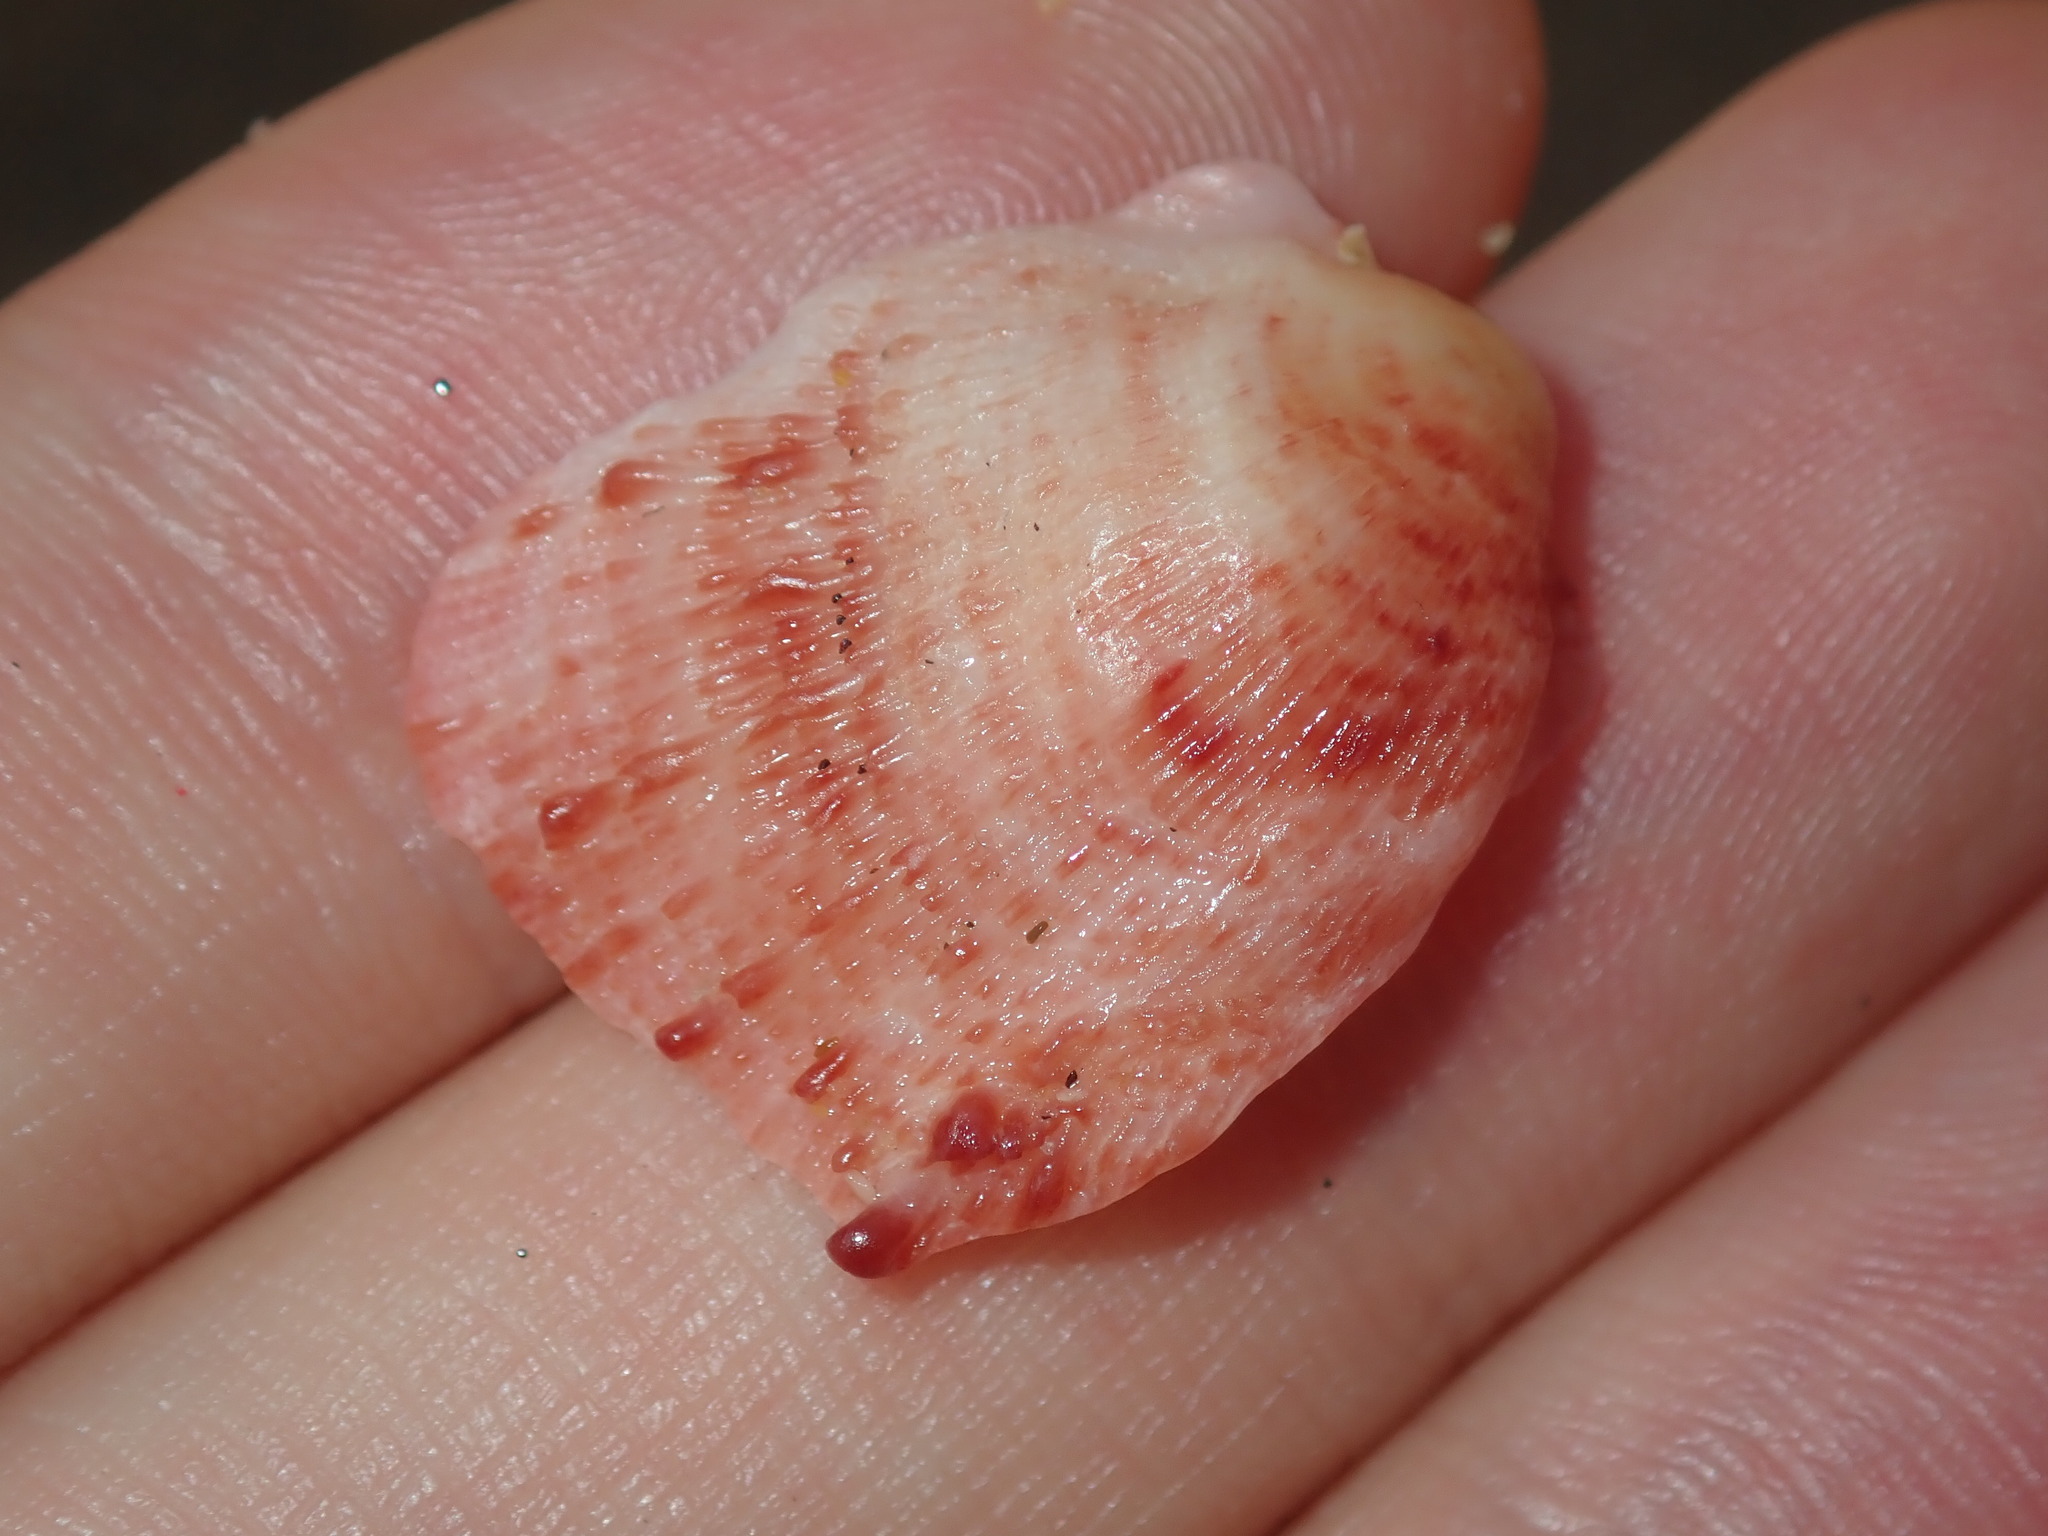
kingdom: Animalia
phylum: Mollusca
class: Bivalvia
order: Pectinida
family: Spondylidae
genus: Spondylus
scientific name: Spondylus tenellus
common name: Scarlet thorny oyster
